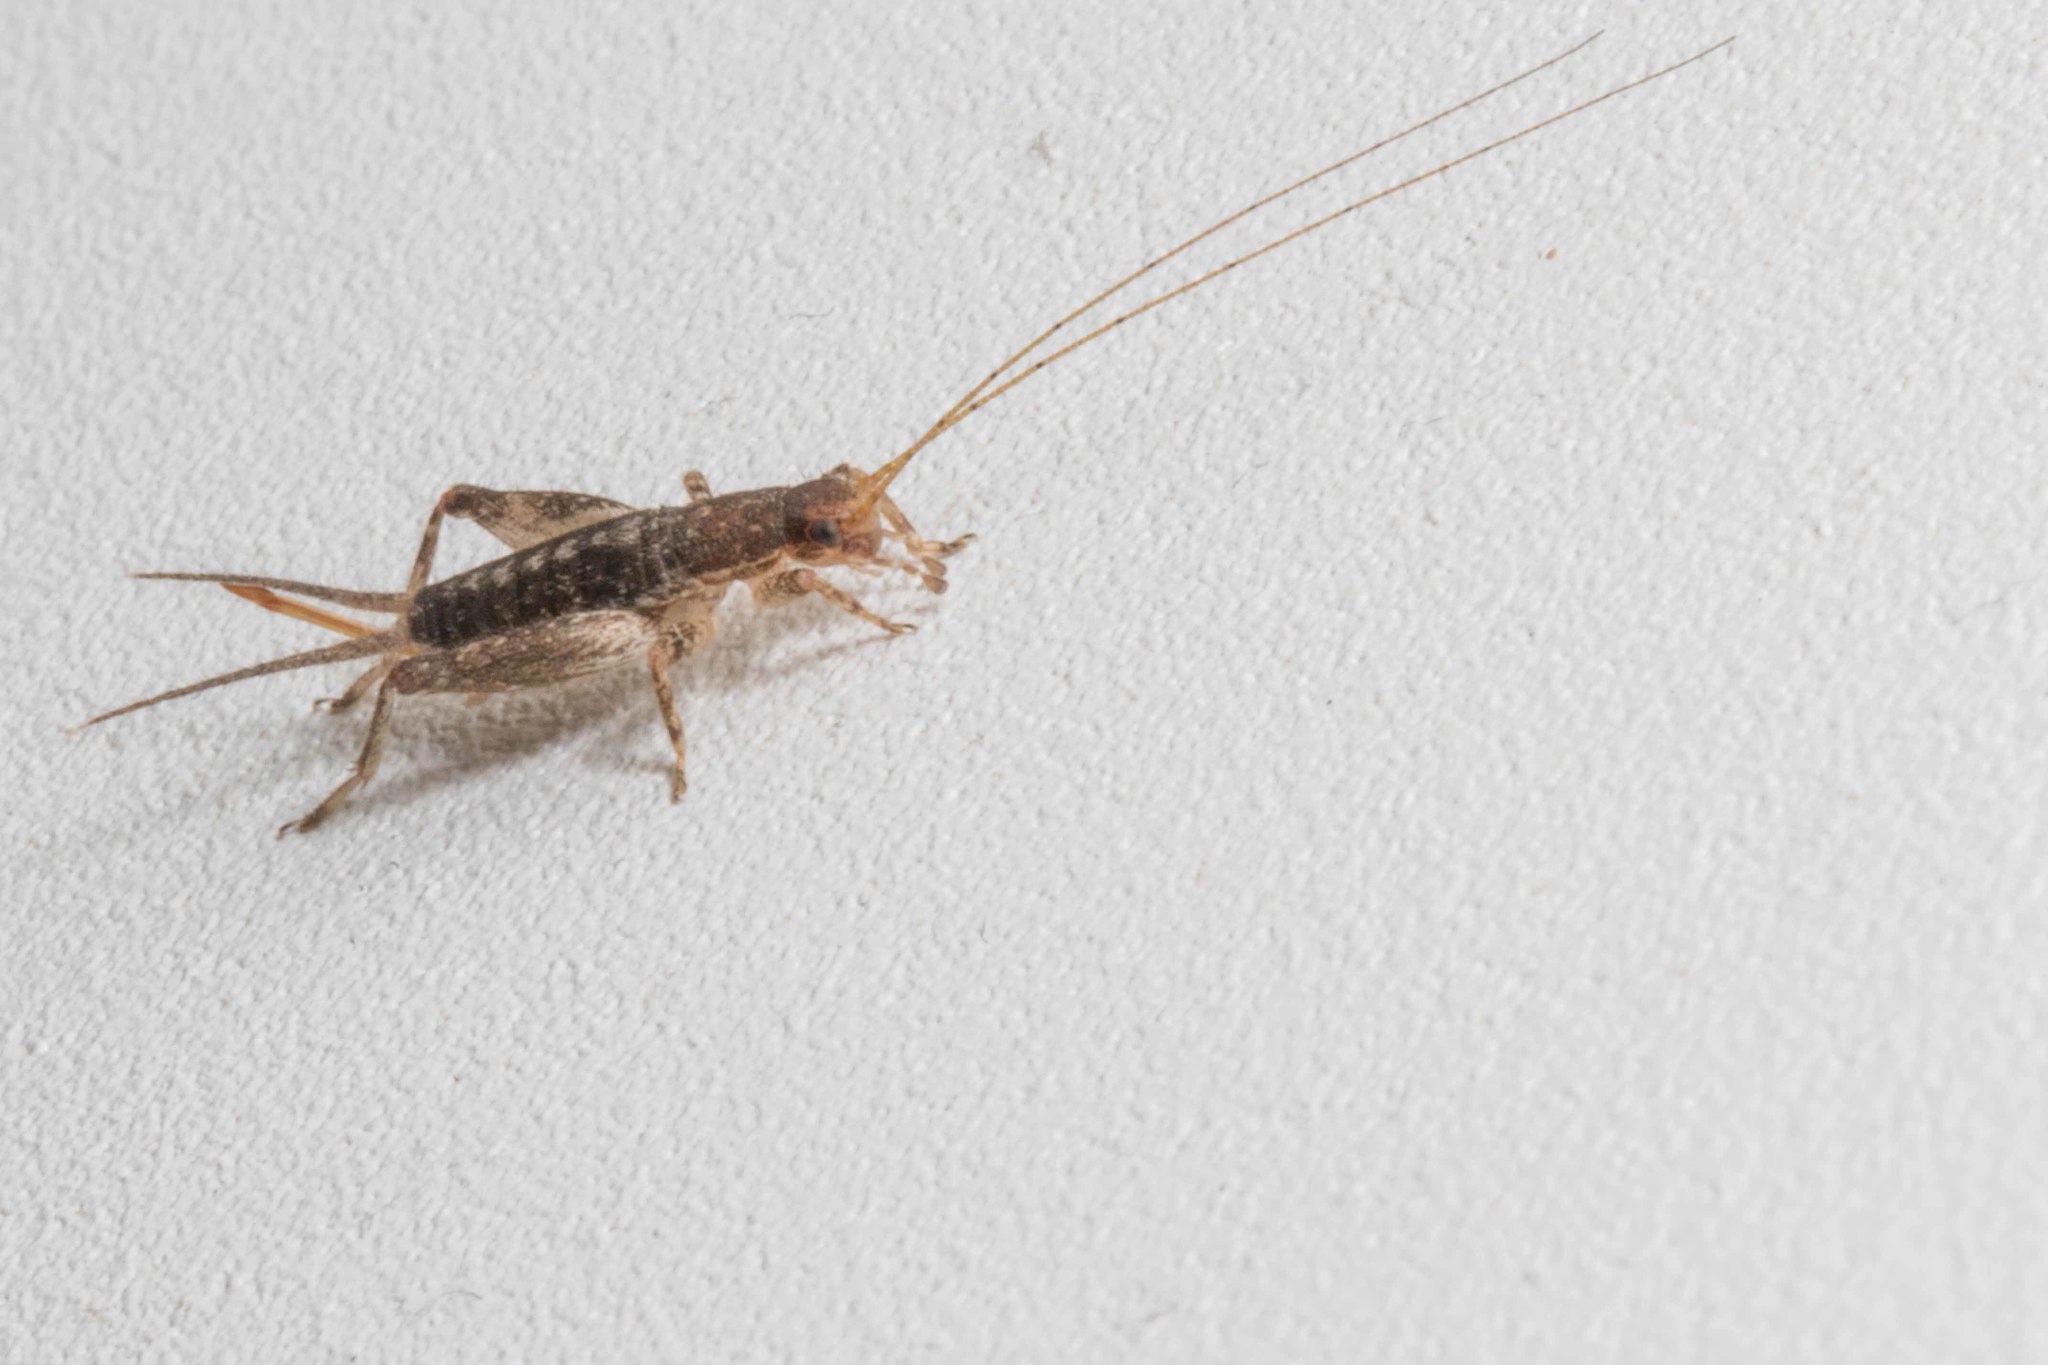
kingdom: Animalia
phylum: Arthropoda
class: Insecta
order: Orthoptera
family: Mogoplistidae
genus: Ornebius
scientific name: Ornebius aperta
